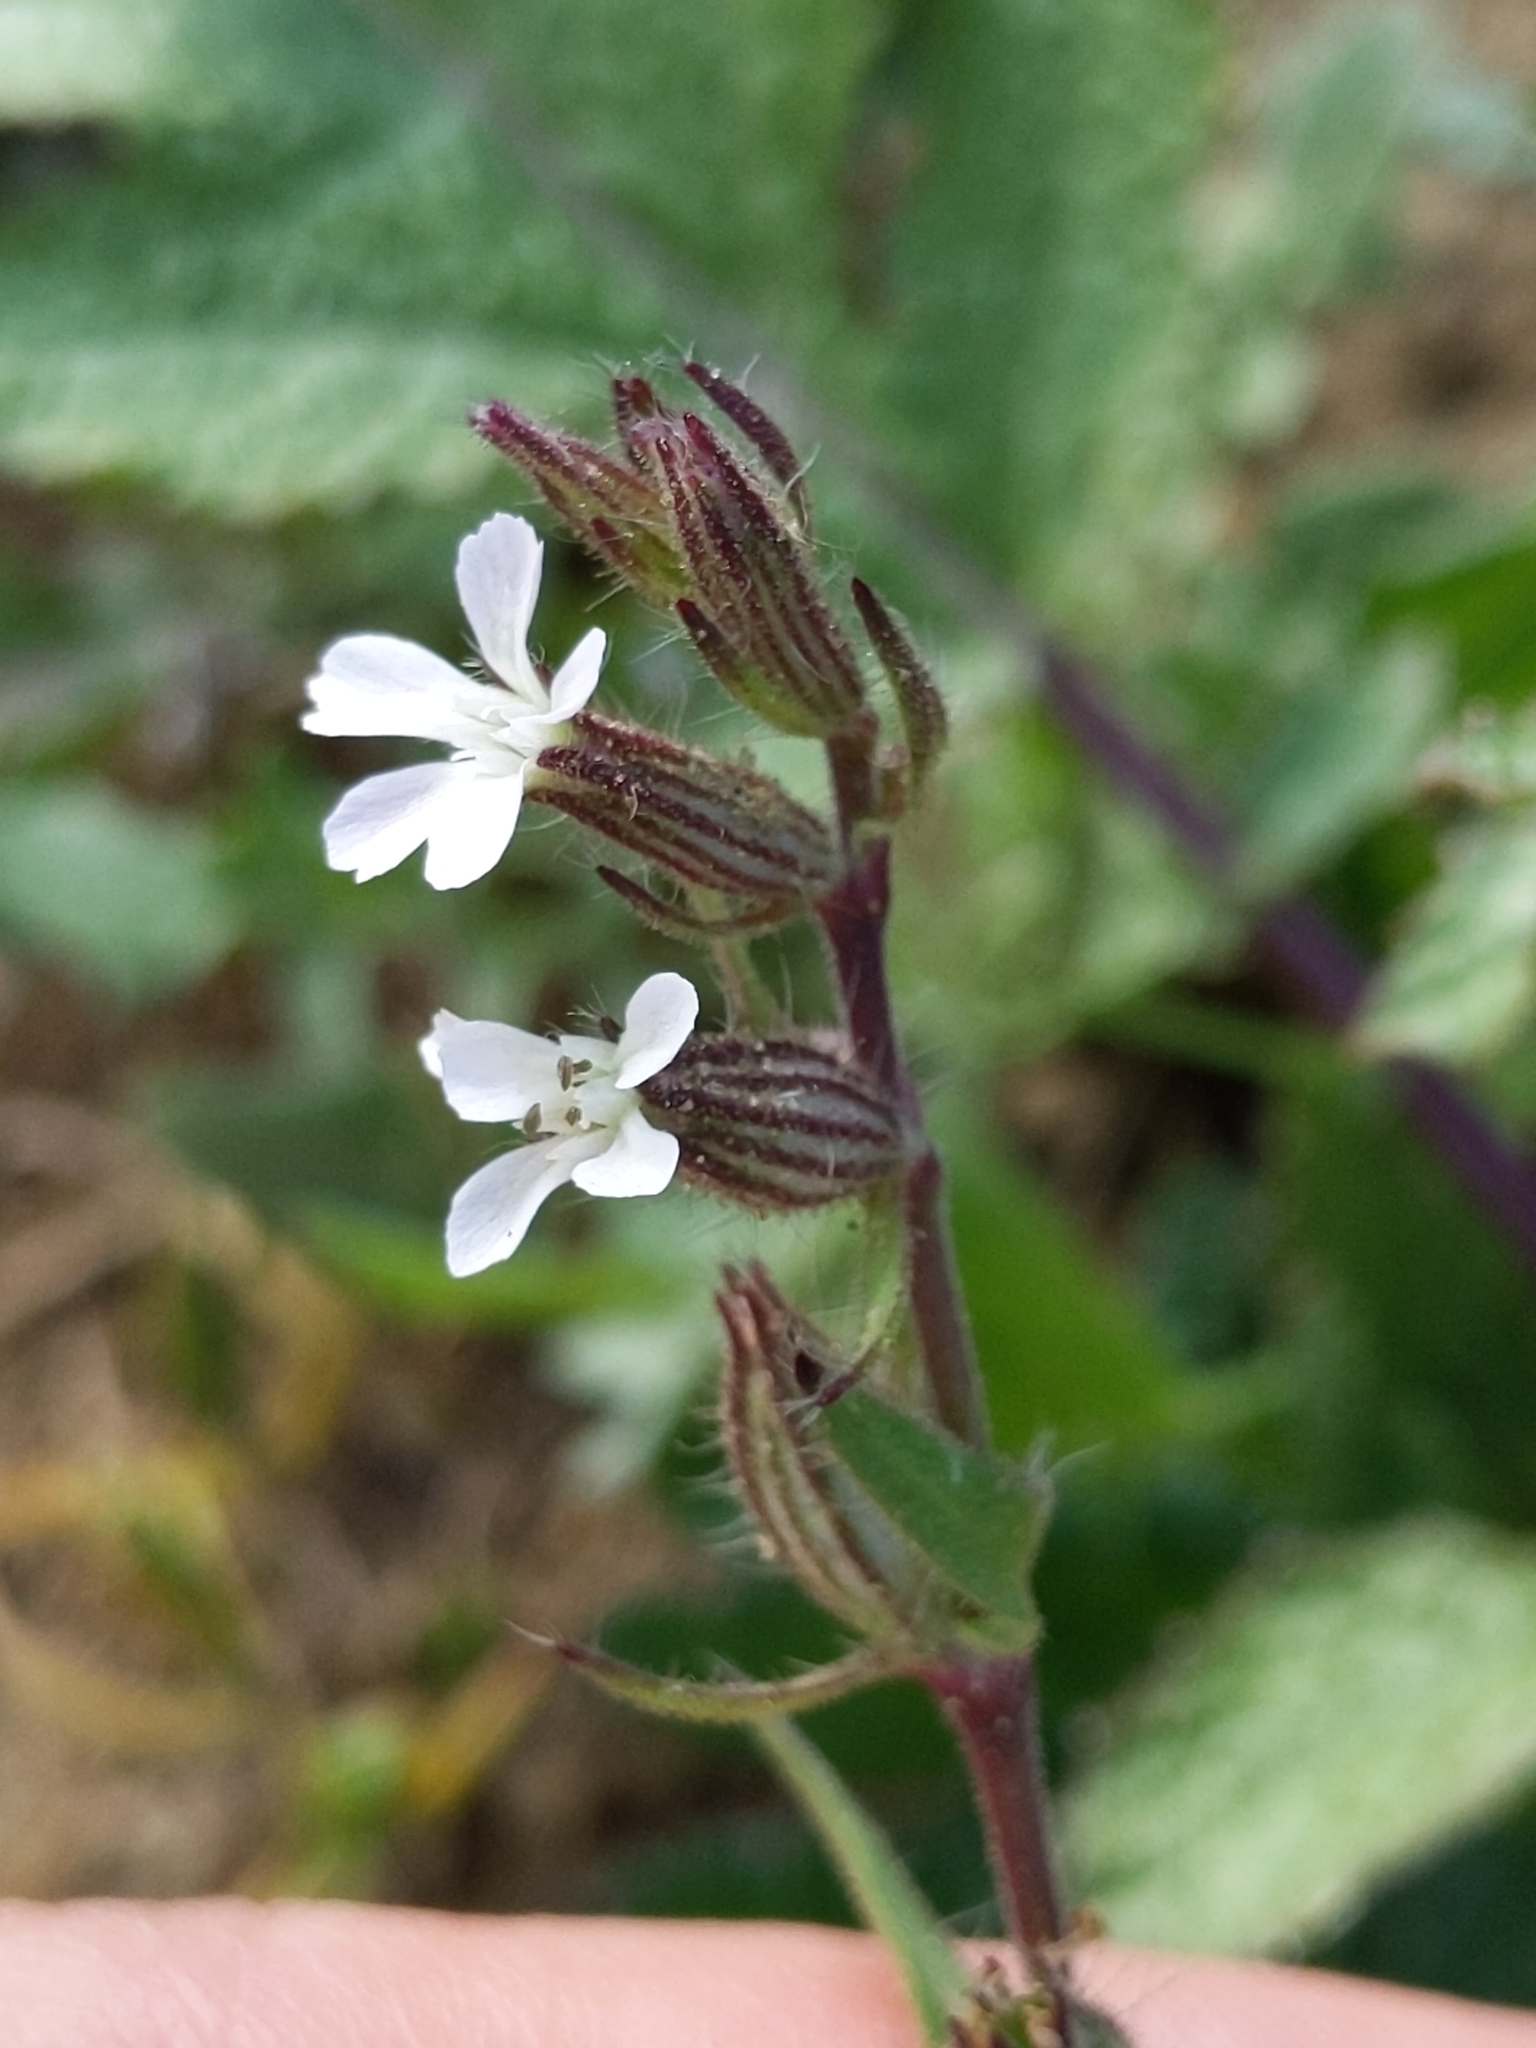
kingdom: Plantae
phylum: Tracheophyta
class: Magnoliopsida
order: Caryophyllales
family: Caryophyllaceae
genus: Silene
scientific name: Silene gallica
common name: Small-flowered catchfly
